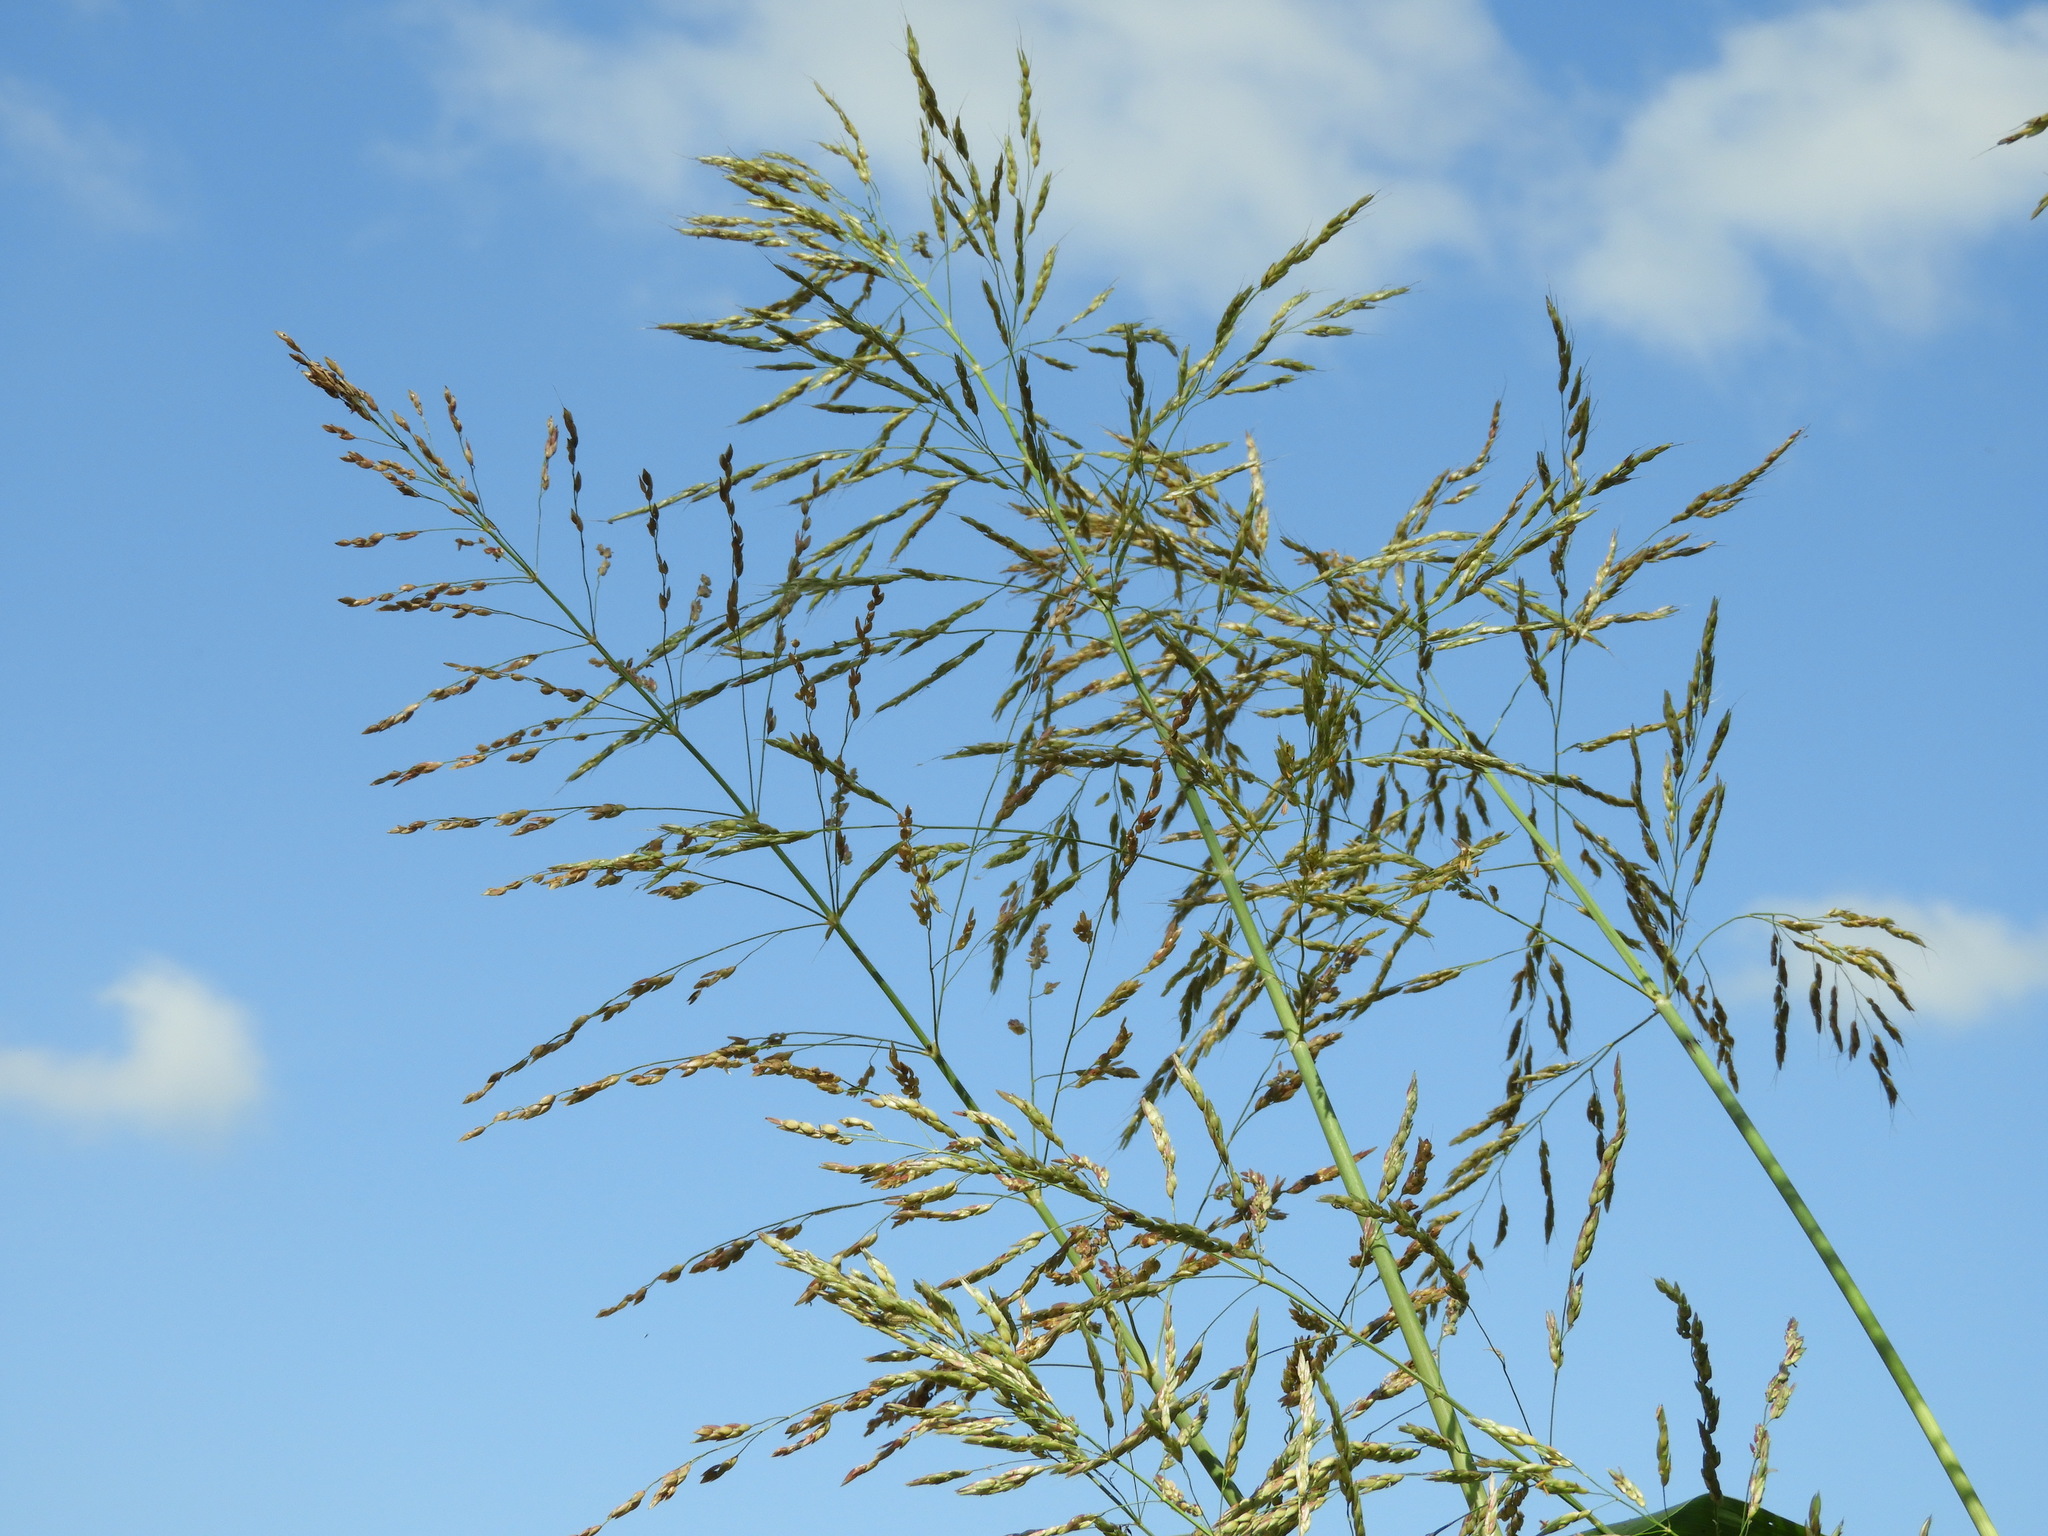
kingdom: Plantae
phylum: Tracheophyta
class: Liliopsida
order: Poales
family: Poaceae
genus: Sorghum
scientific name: Sorghum halepense
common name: Johnson-grass
